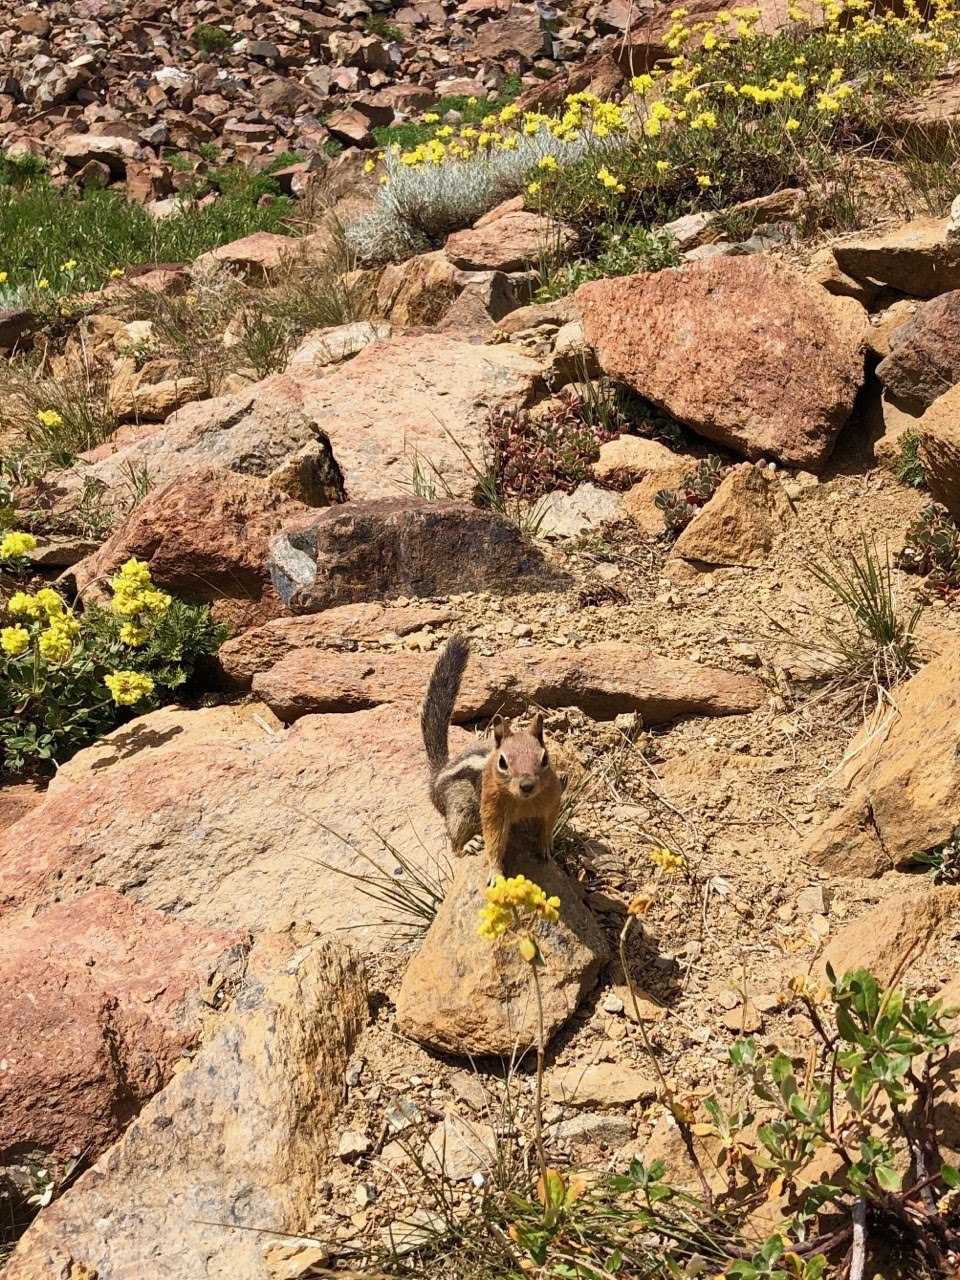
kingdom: Animalia
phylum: Chordata
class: Mammalia
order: Rodentia
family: Sciuridae
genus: Callospermophilus
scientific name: Callospermophilus lateralis
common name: Golden-mantled ground squirrel
